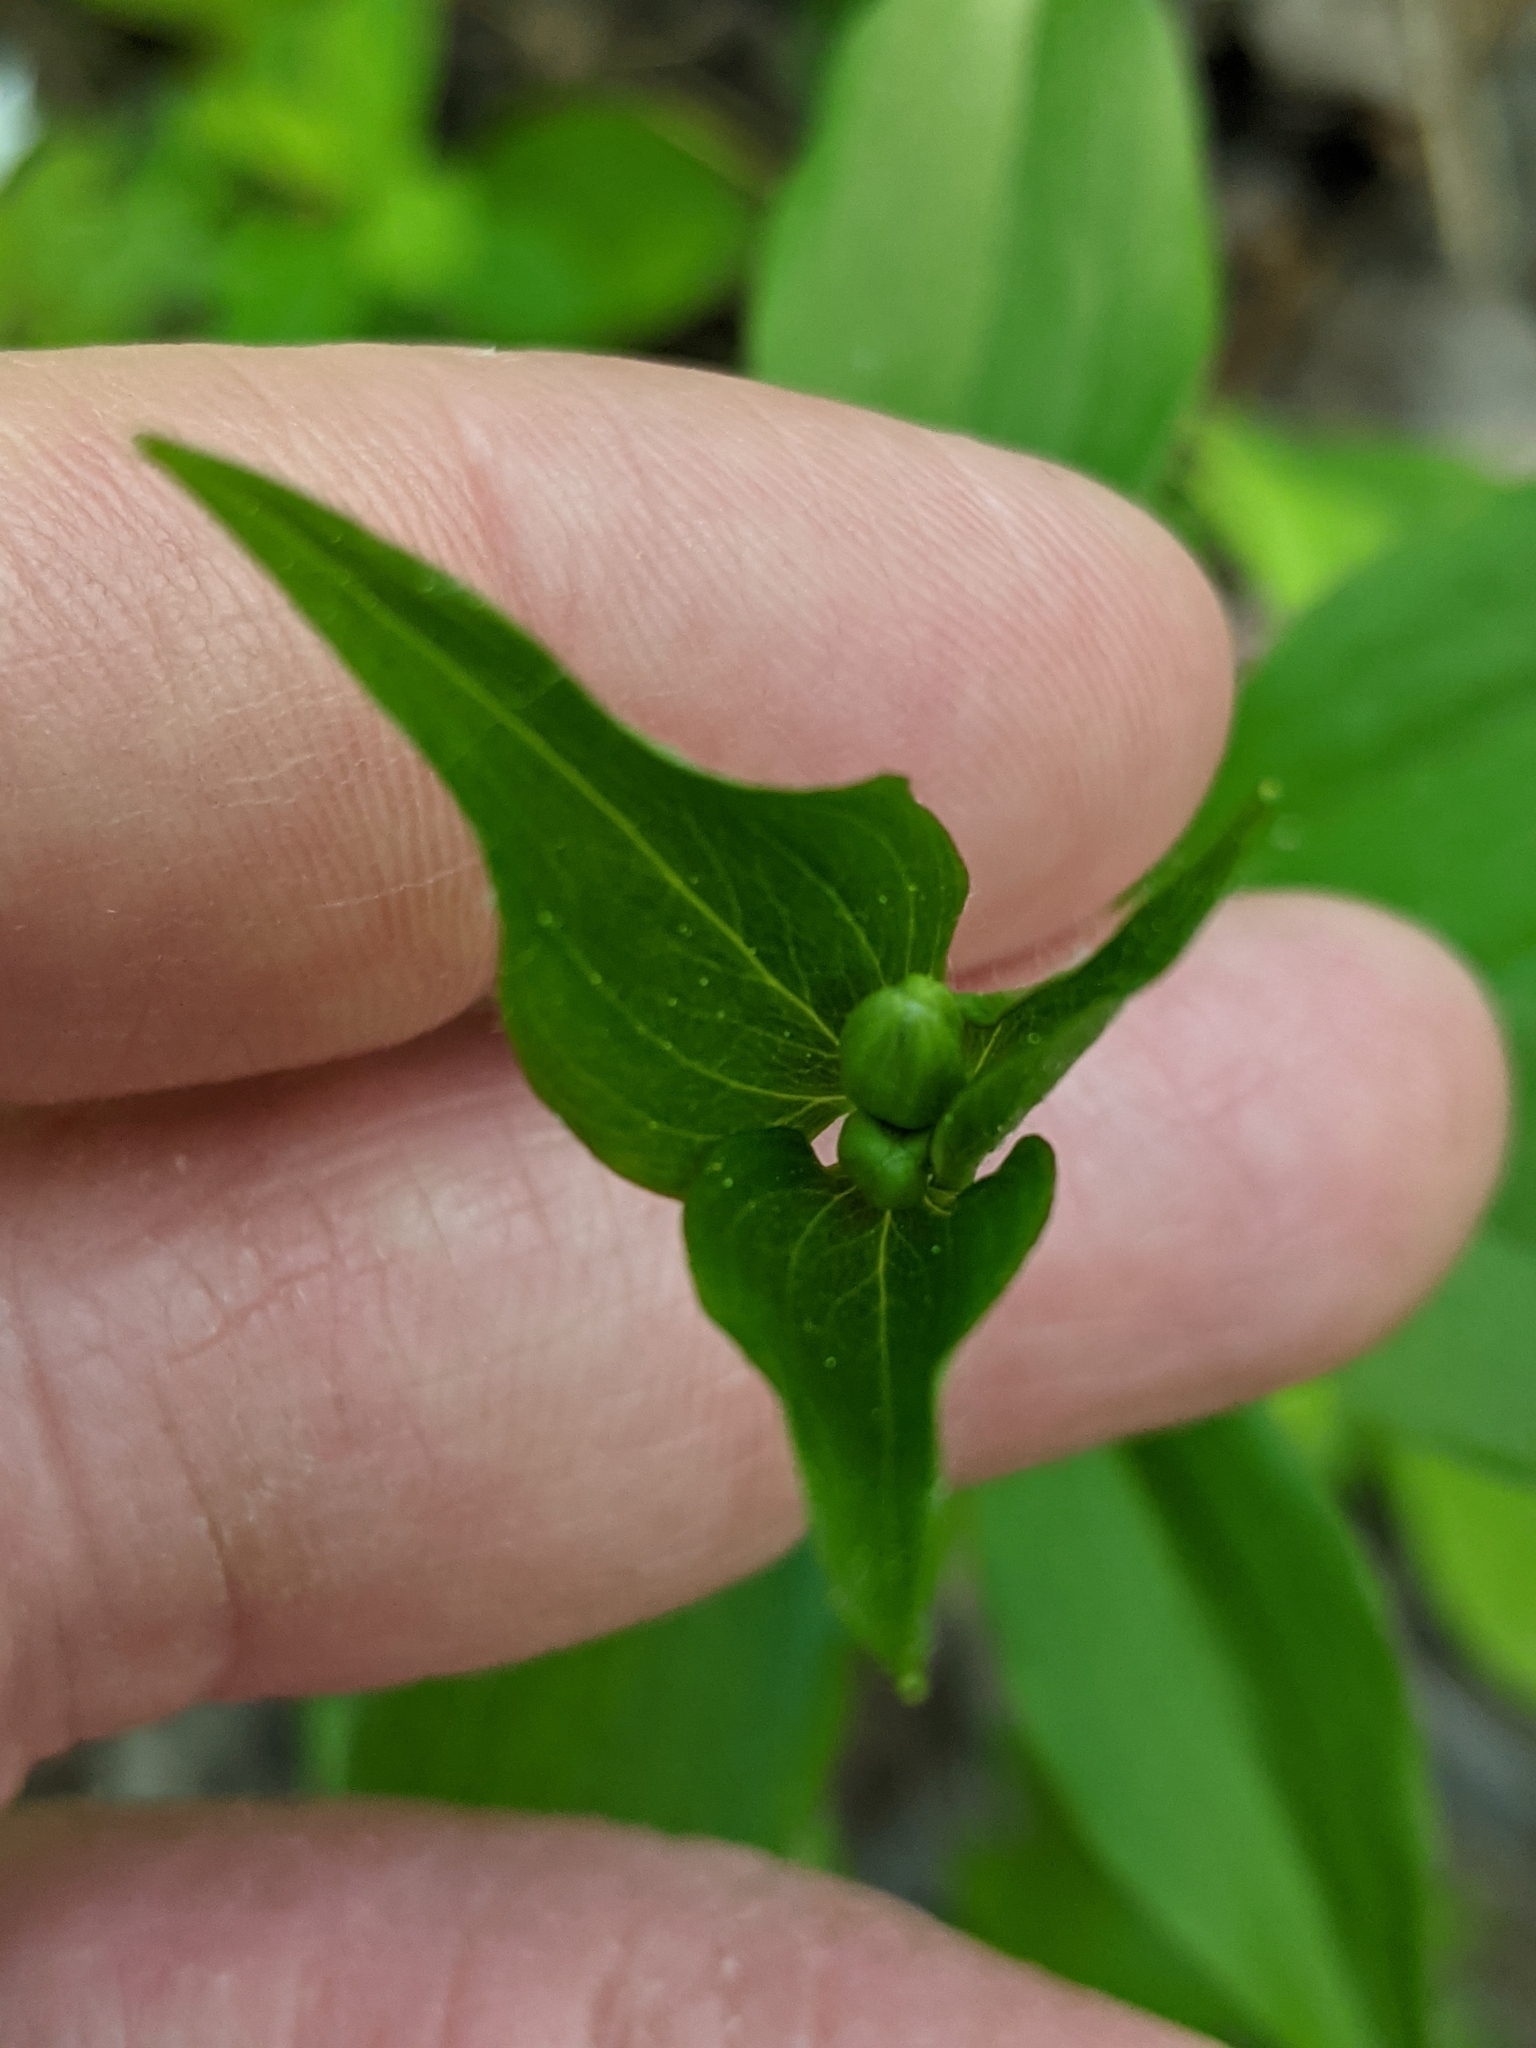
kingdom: Plantae
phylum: Tracheophyta
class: Liliopsida
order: Liliales
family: Liliaceae
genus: Medeola
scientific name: Medeola virginiana
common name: Indian cucumber-root
